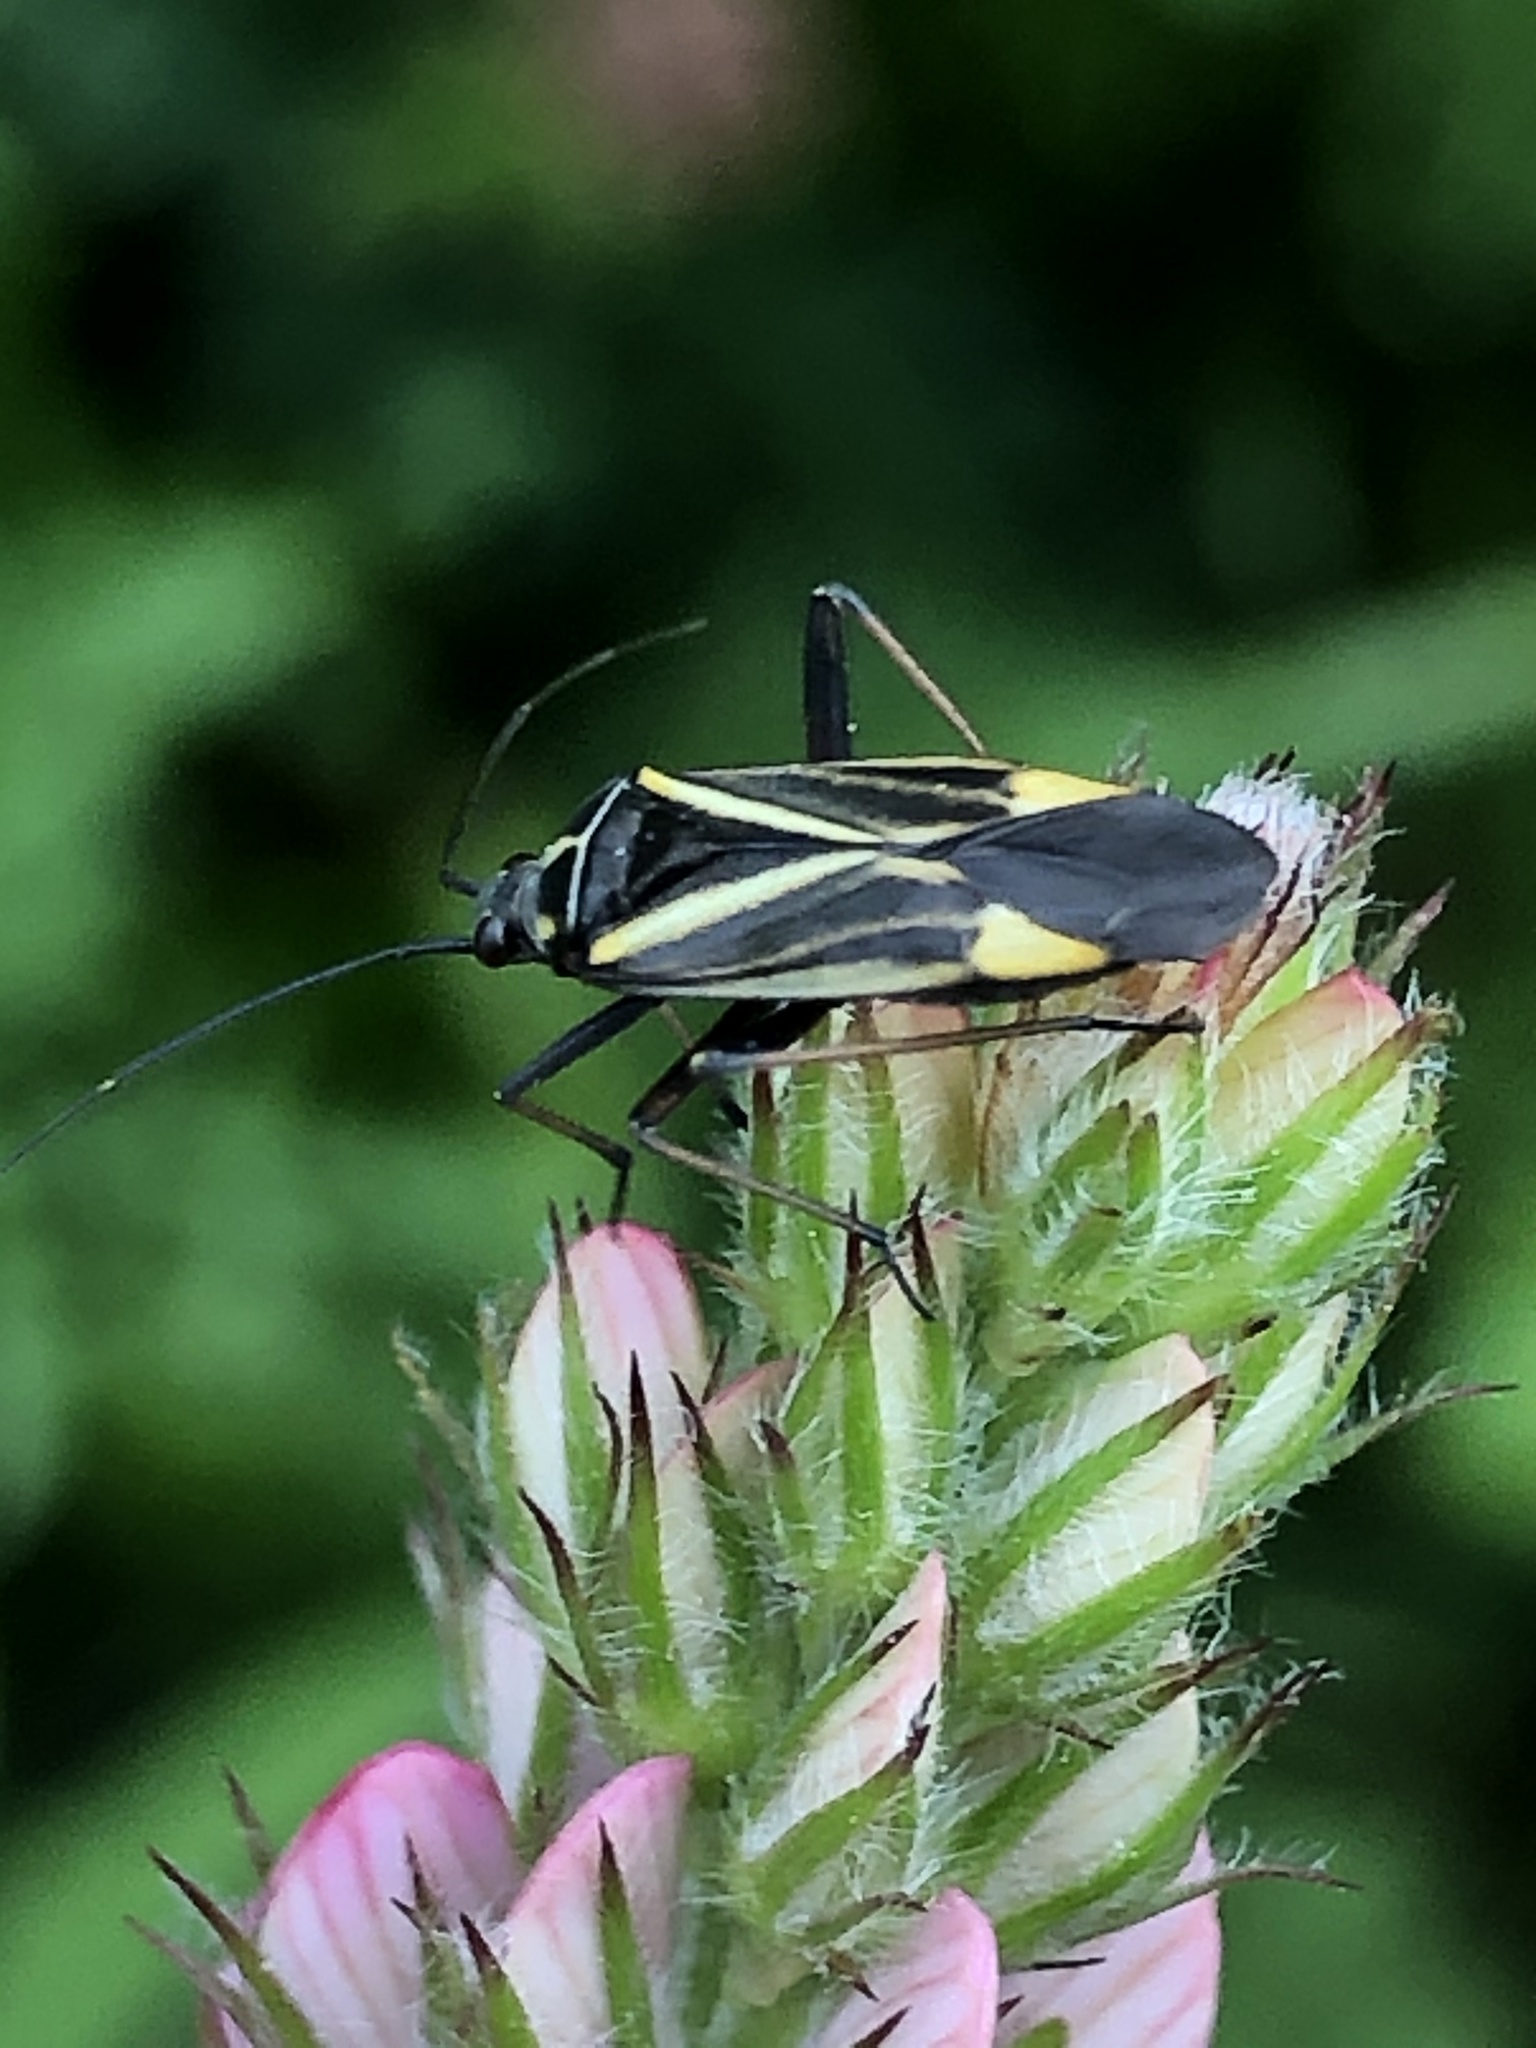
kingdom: Animalia
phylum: Arthropoda
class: Insecta
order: Hemiptera
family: Miridae
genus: Hadrodemus
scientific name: Hadrodemus m-flavum
